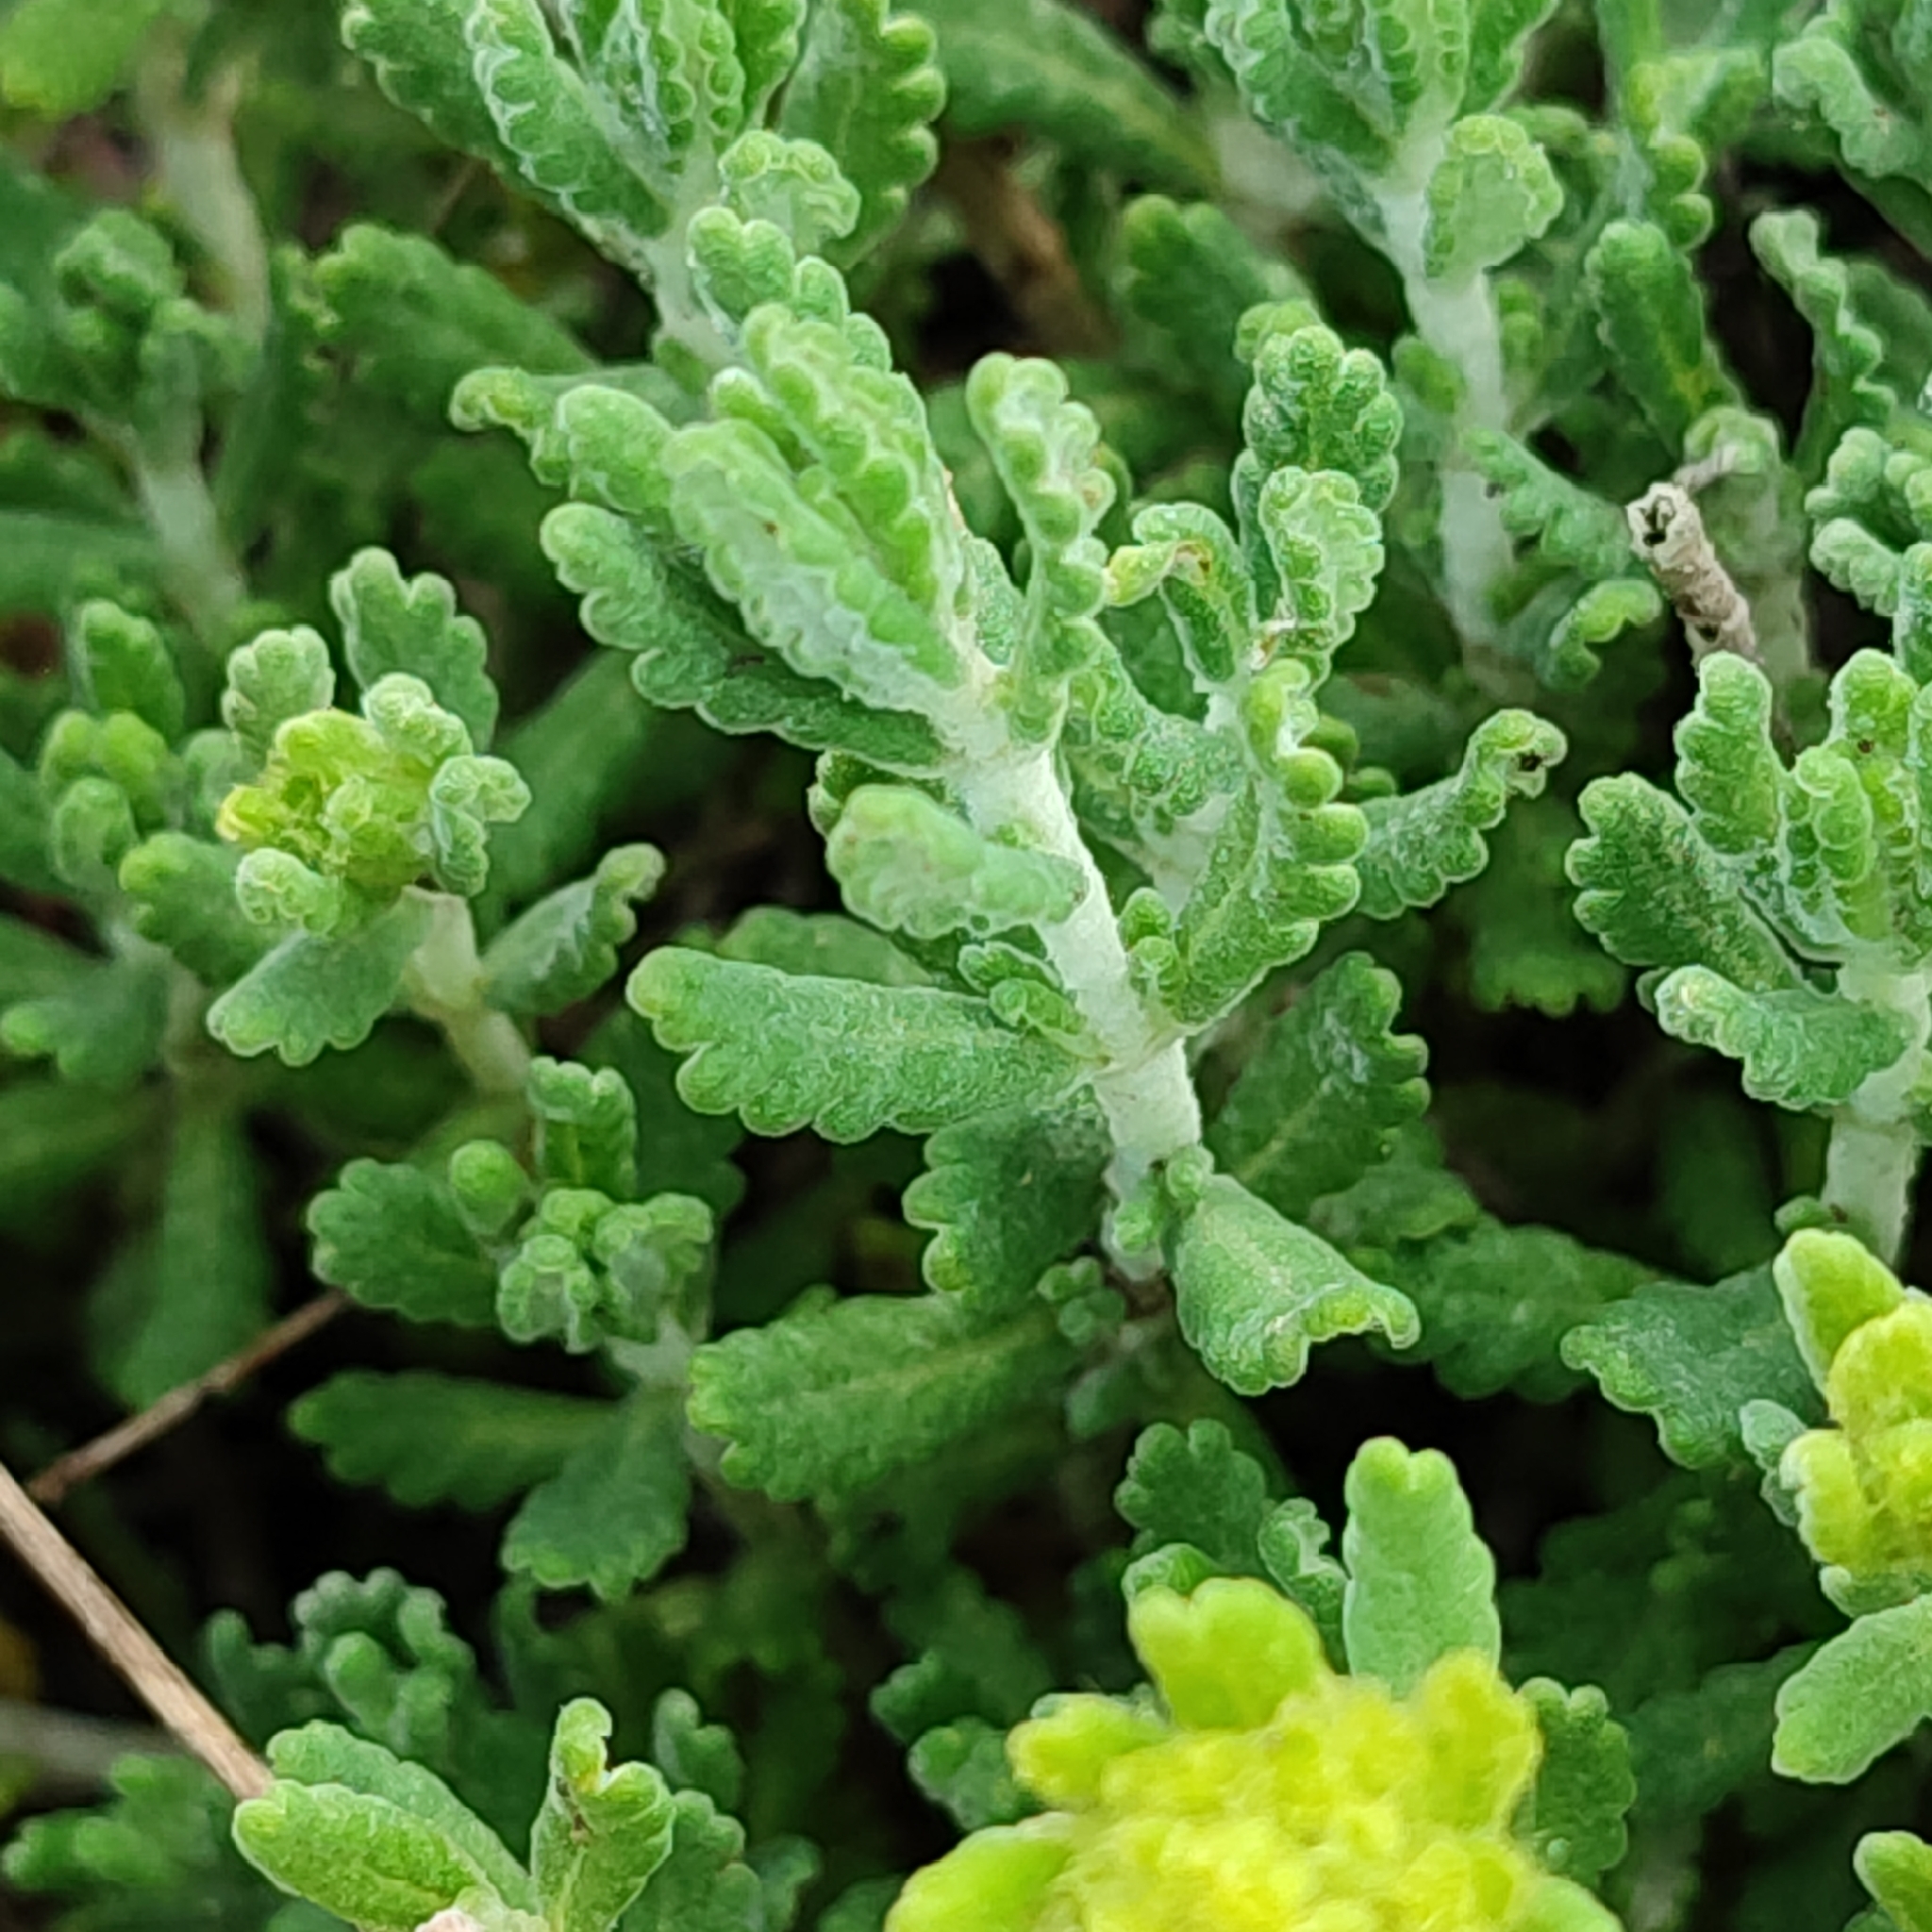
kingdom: Plantae
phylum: Tracheophyta
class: Magnoliopsida
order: Lamiales
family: Lamiaceae
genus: Teucrium
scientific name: Teucrium aureum
